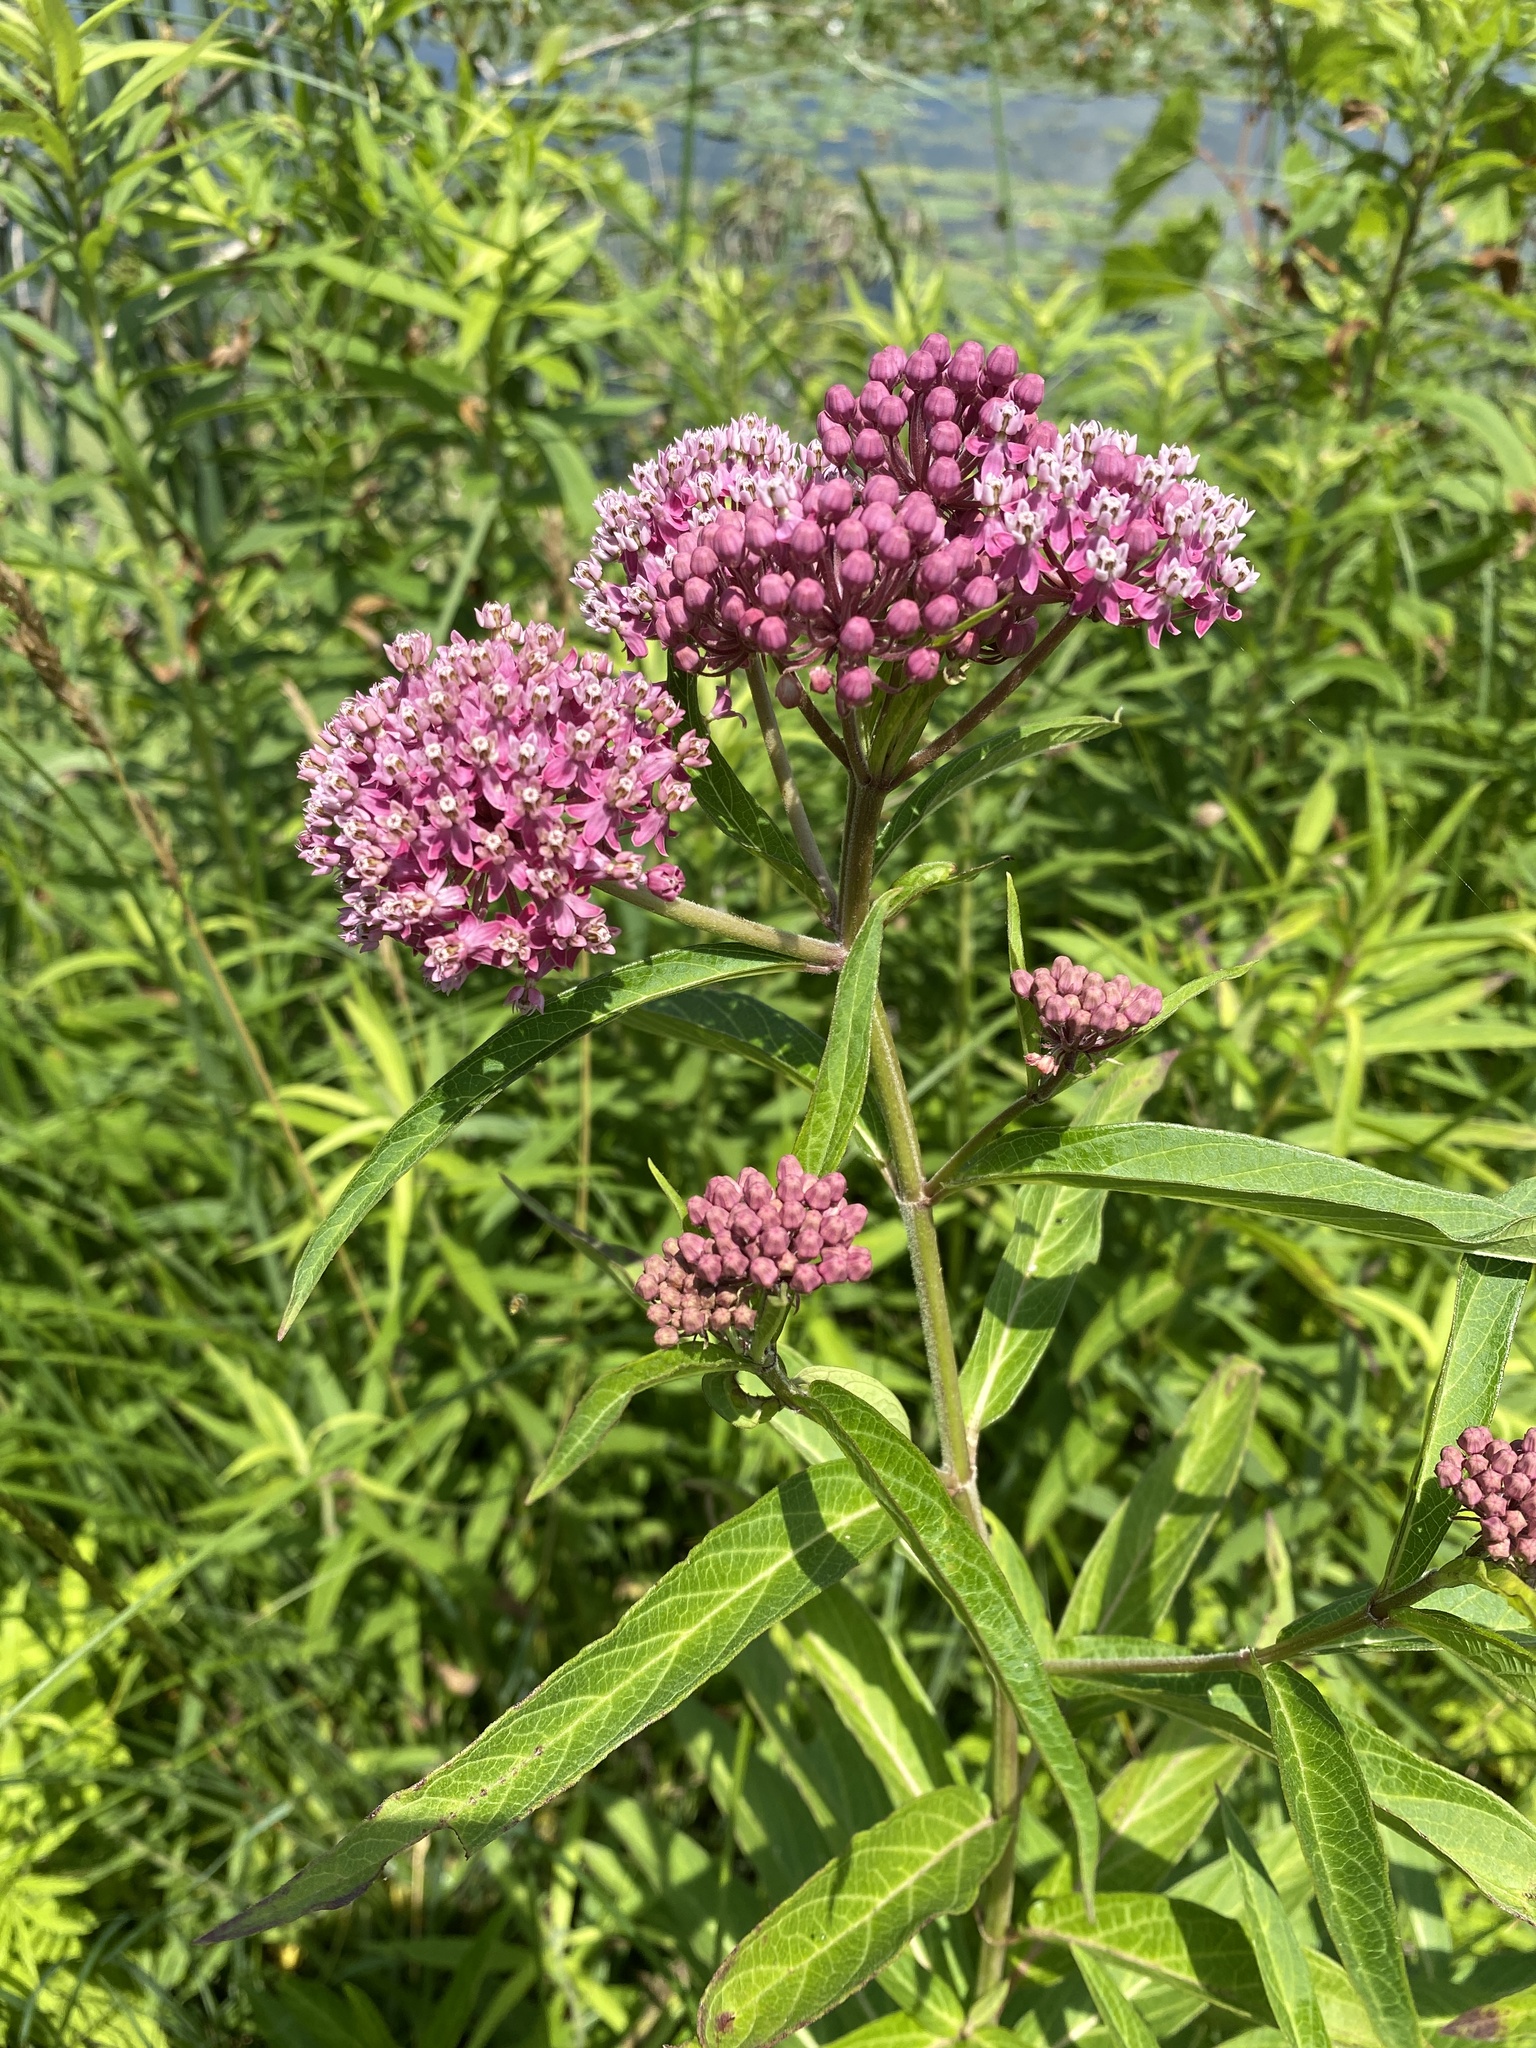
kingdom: Plantae
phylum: Tracheophyta
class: Magnoliopsida
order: Gentianales
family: Apocynaceae
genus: Asclepias
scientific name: Asclepias incarnata
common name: Swamp milkweed
